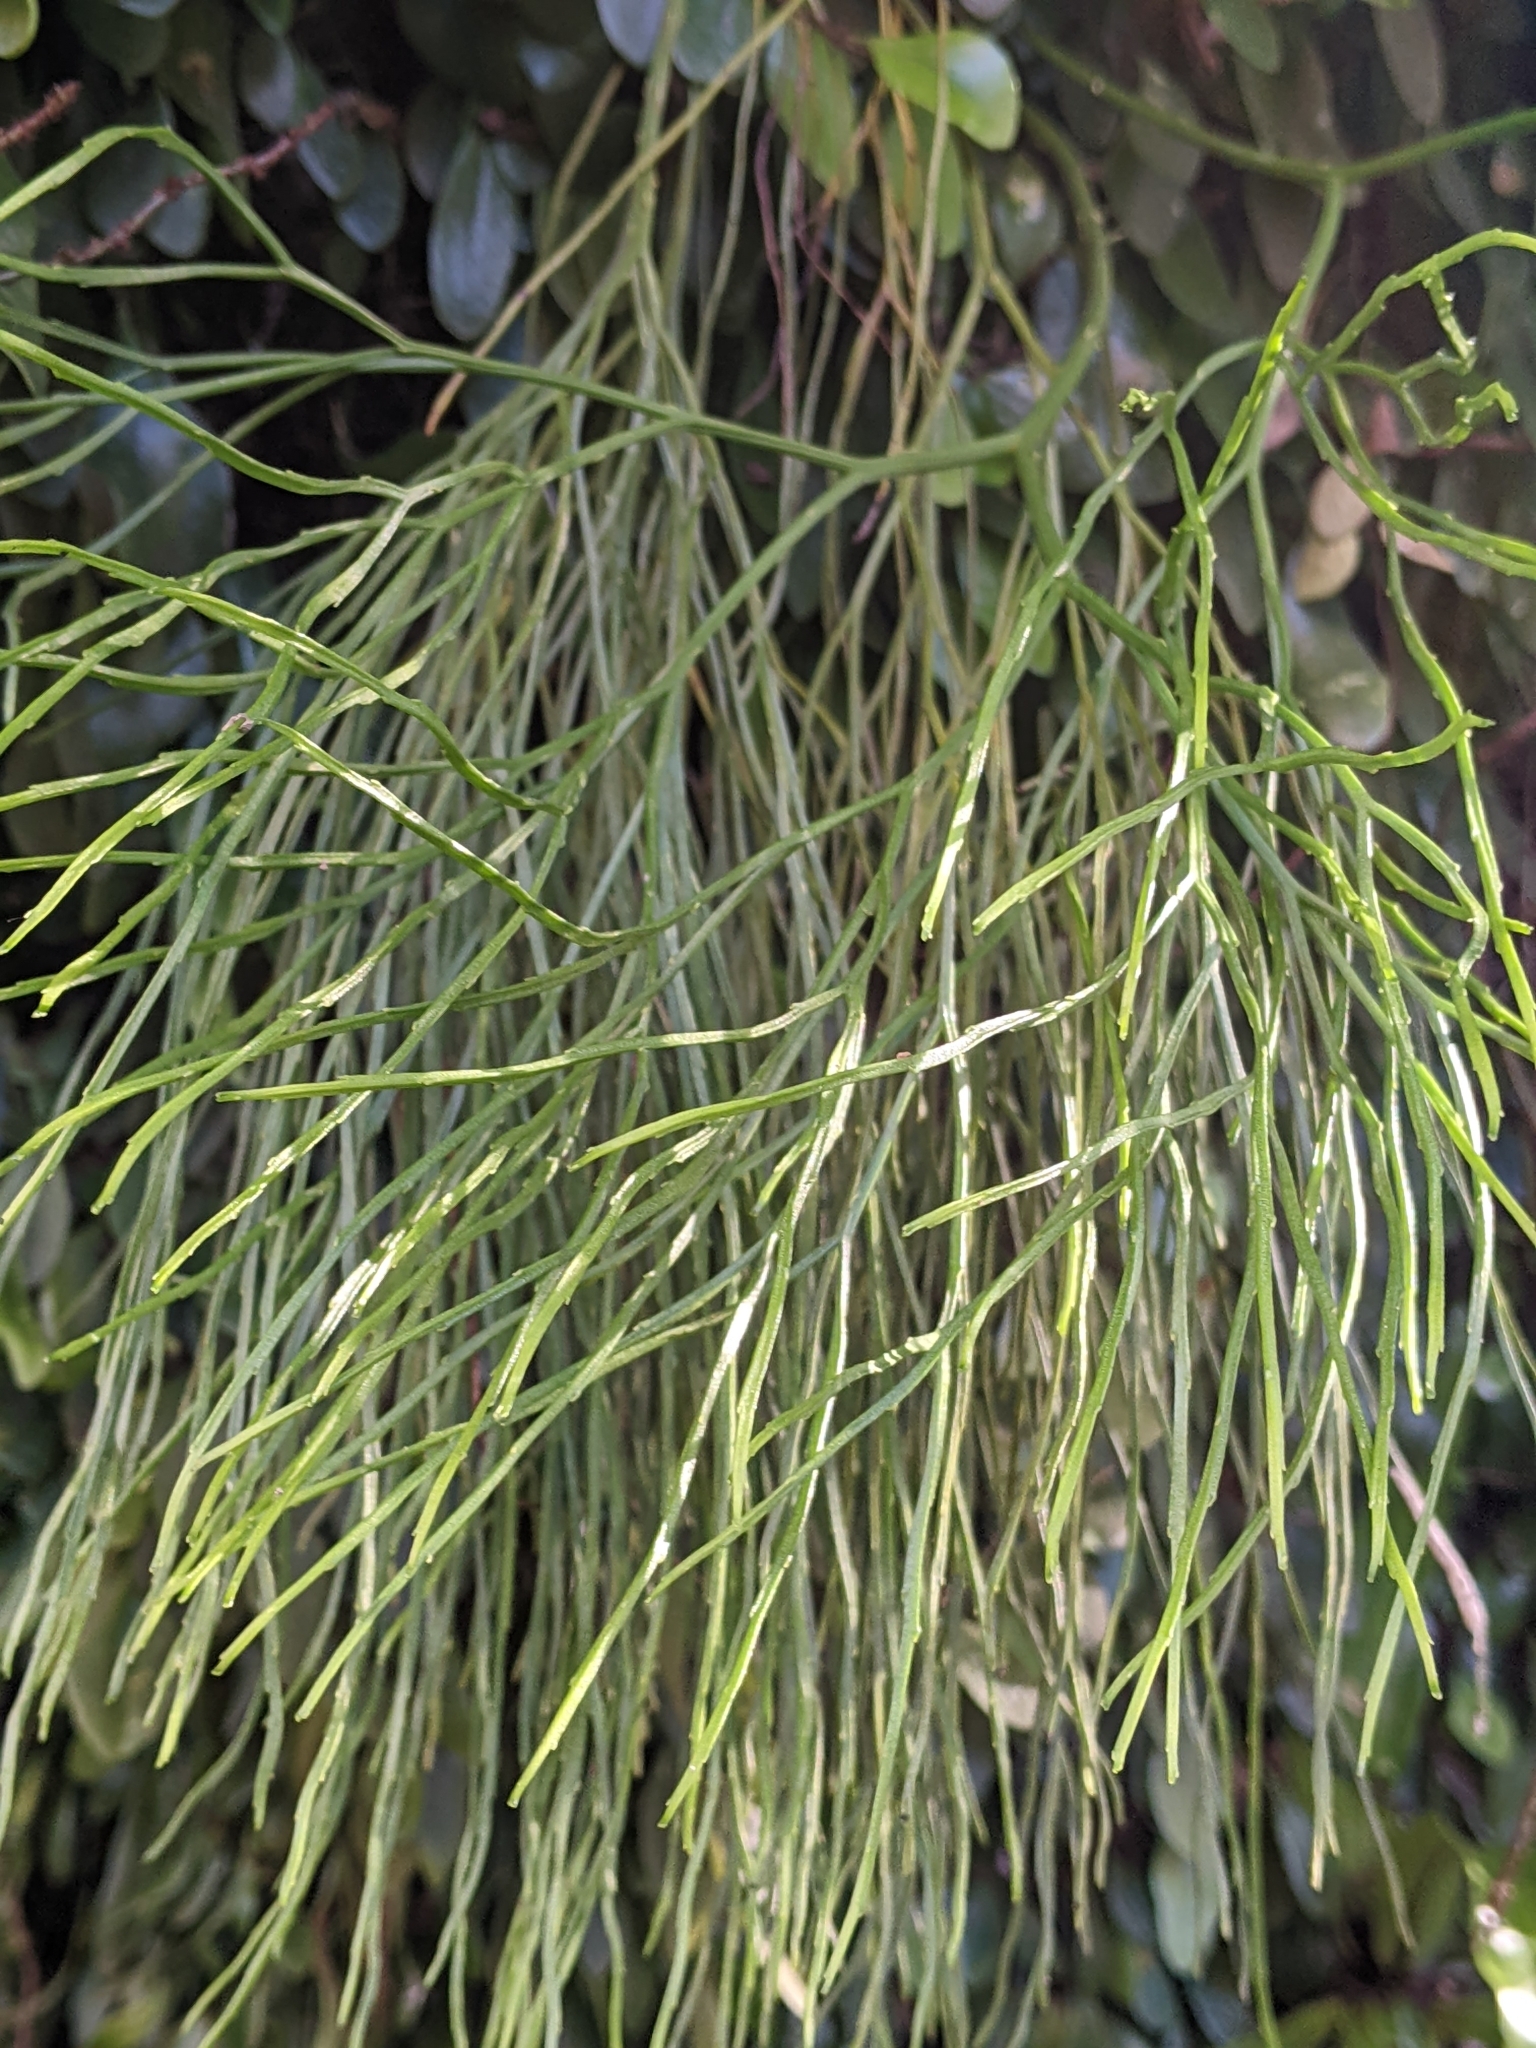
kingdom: Plantae
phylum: Tracheophyta
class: Polypodiopsida
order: Psilotales
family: Psilotaceae
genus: Psilotum
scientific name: Psilotum nudum
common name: Skeleton fork fern
